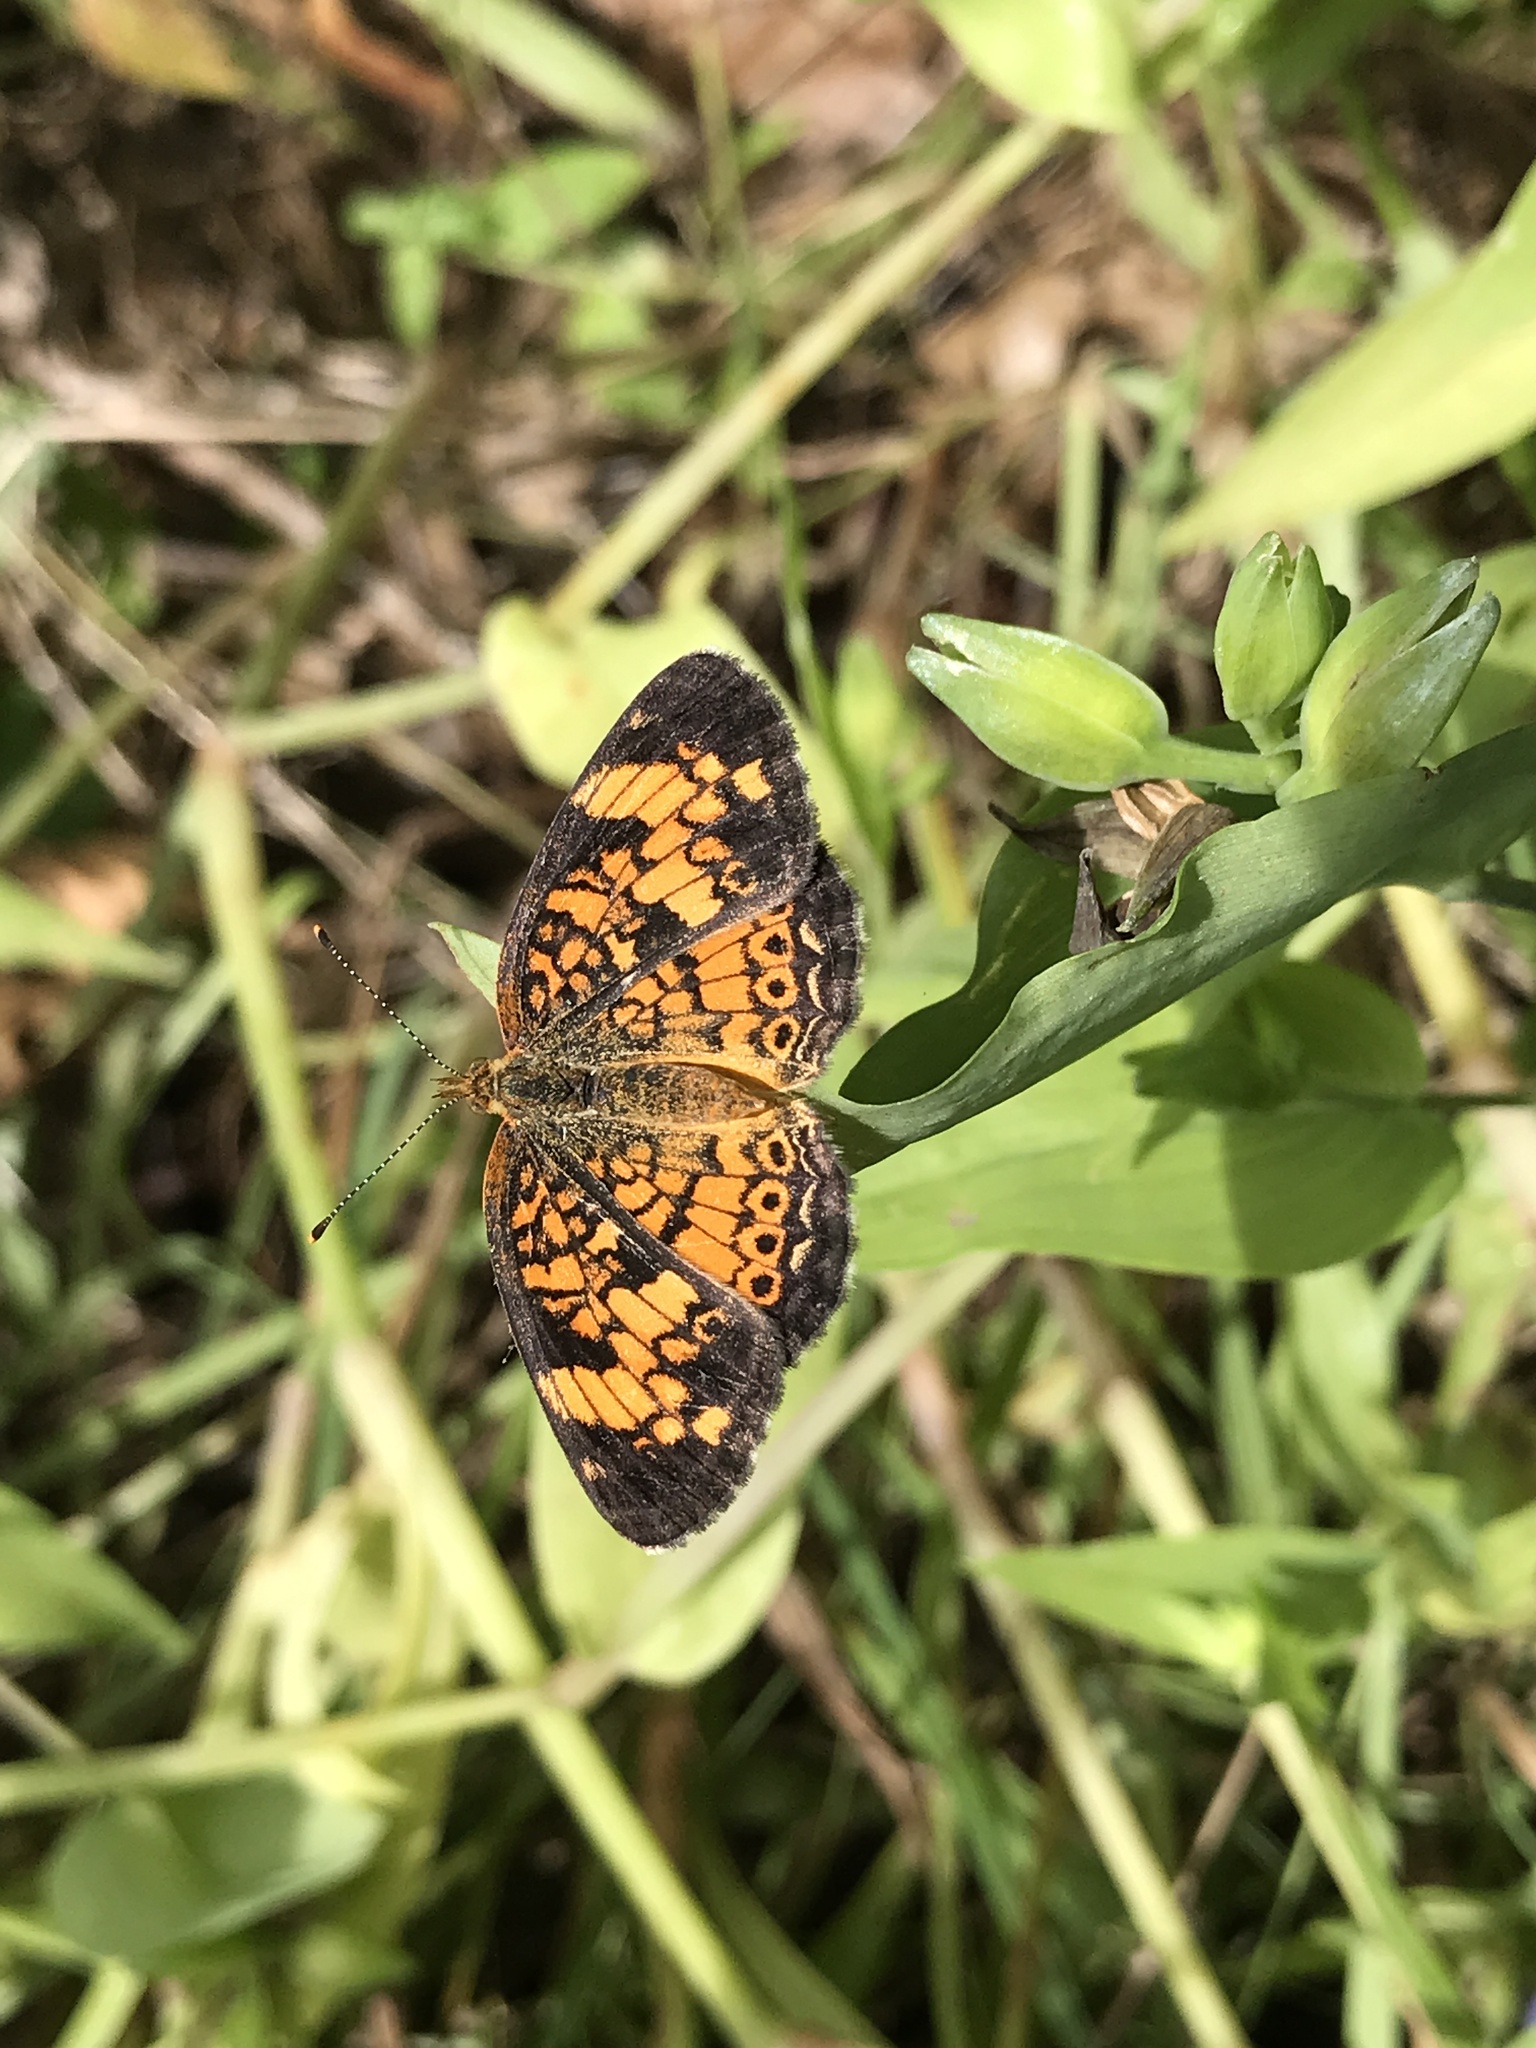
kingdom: Animalia
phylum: Arthropoda
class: Insecta
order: Lepidoptera
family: Nymphalidae
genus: Phyciodes
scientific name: Phyciodes tharos
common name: Pearl crescent
